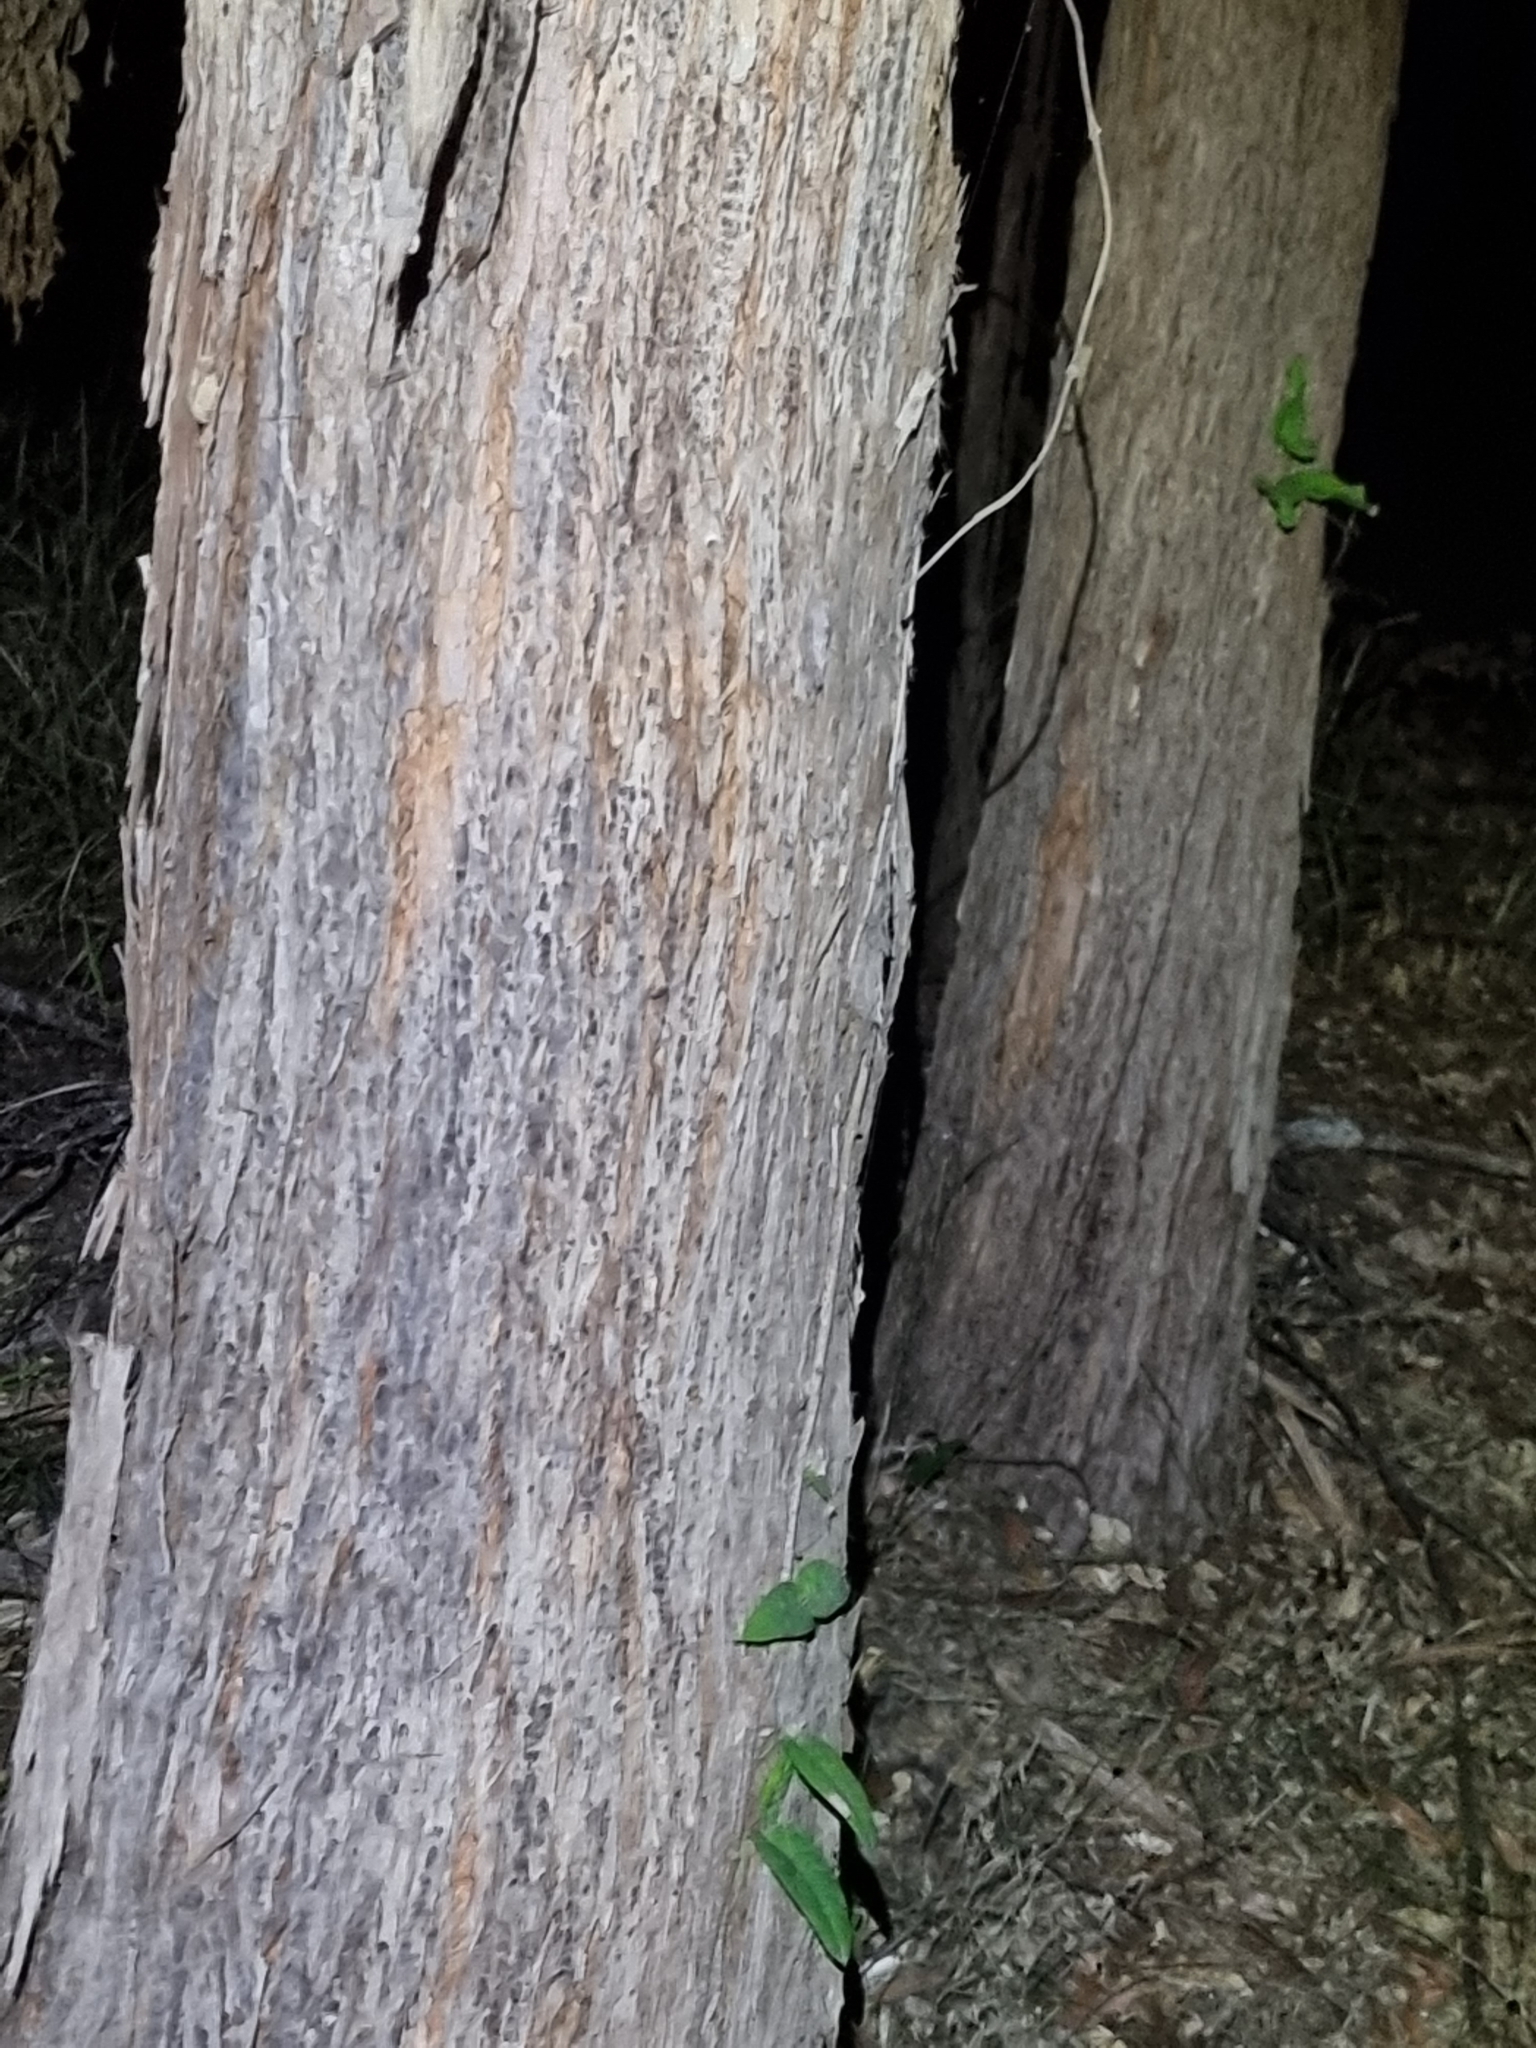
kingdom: Plantae
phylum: Tracheophyta
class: Magnoliopsida
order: Myrtales
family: Myrtaceae
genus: Eucalyptus
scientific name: Eucalyptus microcorys
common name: Tallowwood
